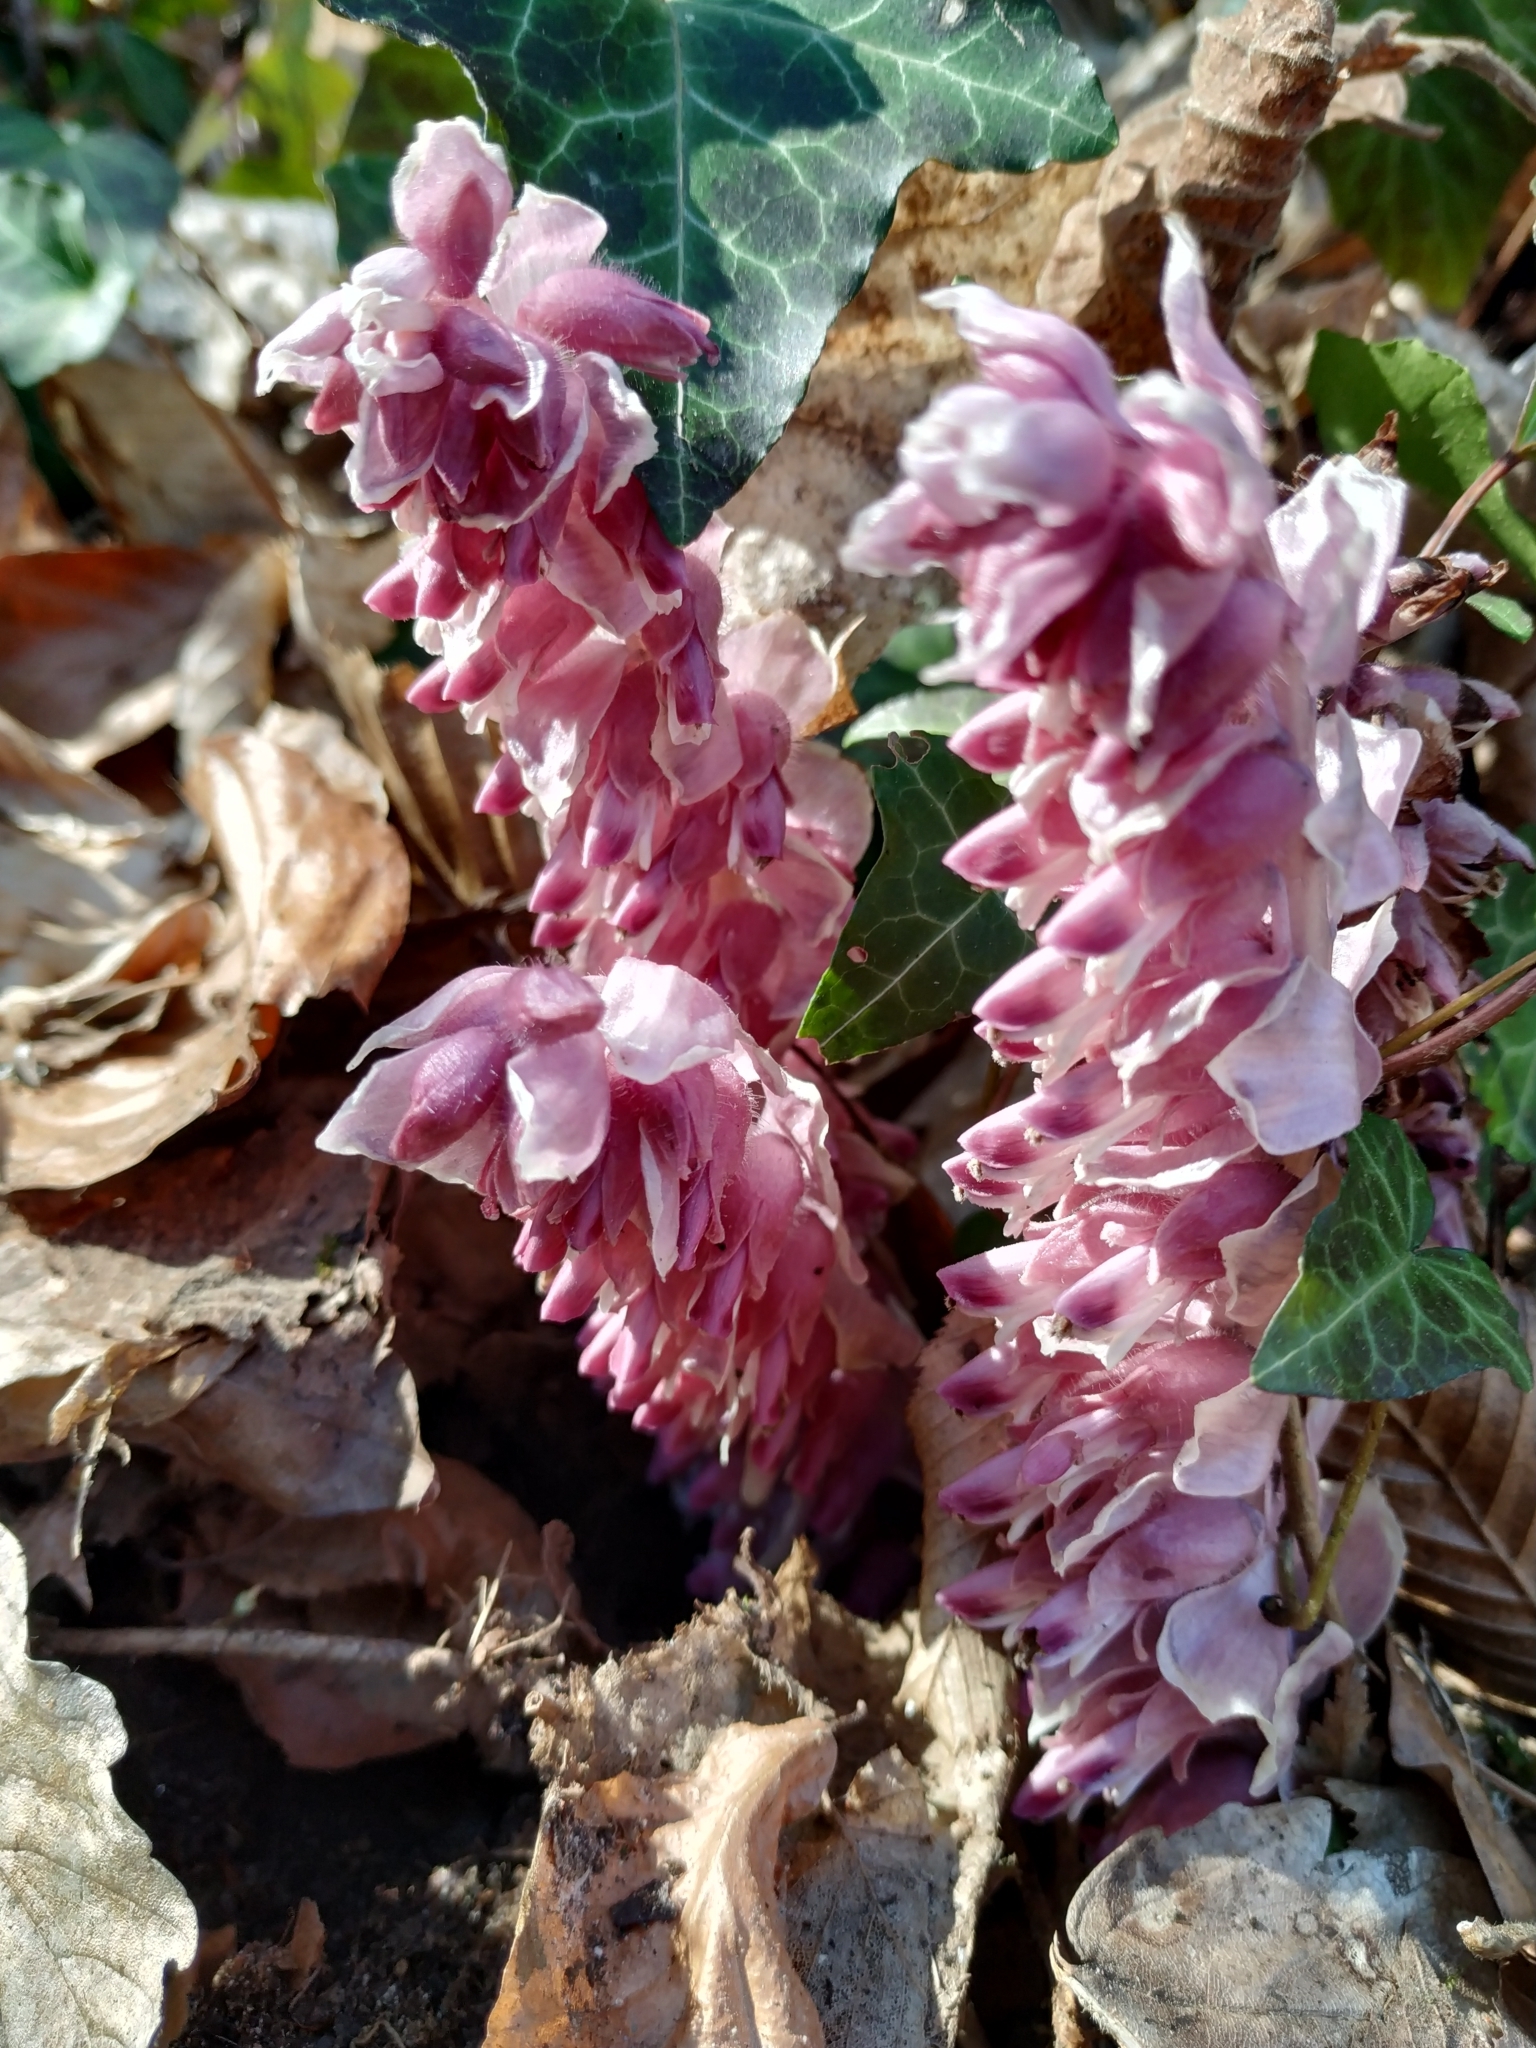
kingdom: Plantae
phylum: Tracheophyta
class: Magnoliopsida
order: Lamiales
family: Orobanchaceae
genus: Lathraea
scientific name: Lathraea squamaria
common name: Toothwort
